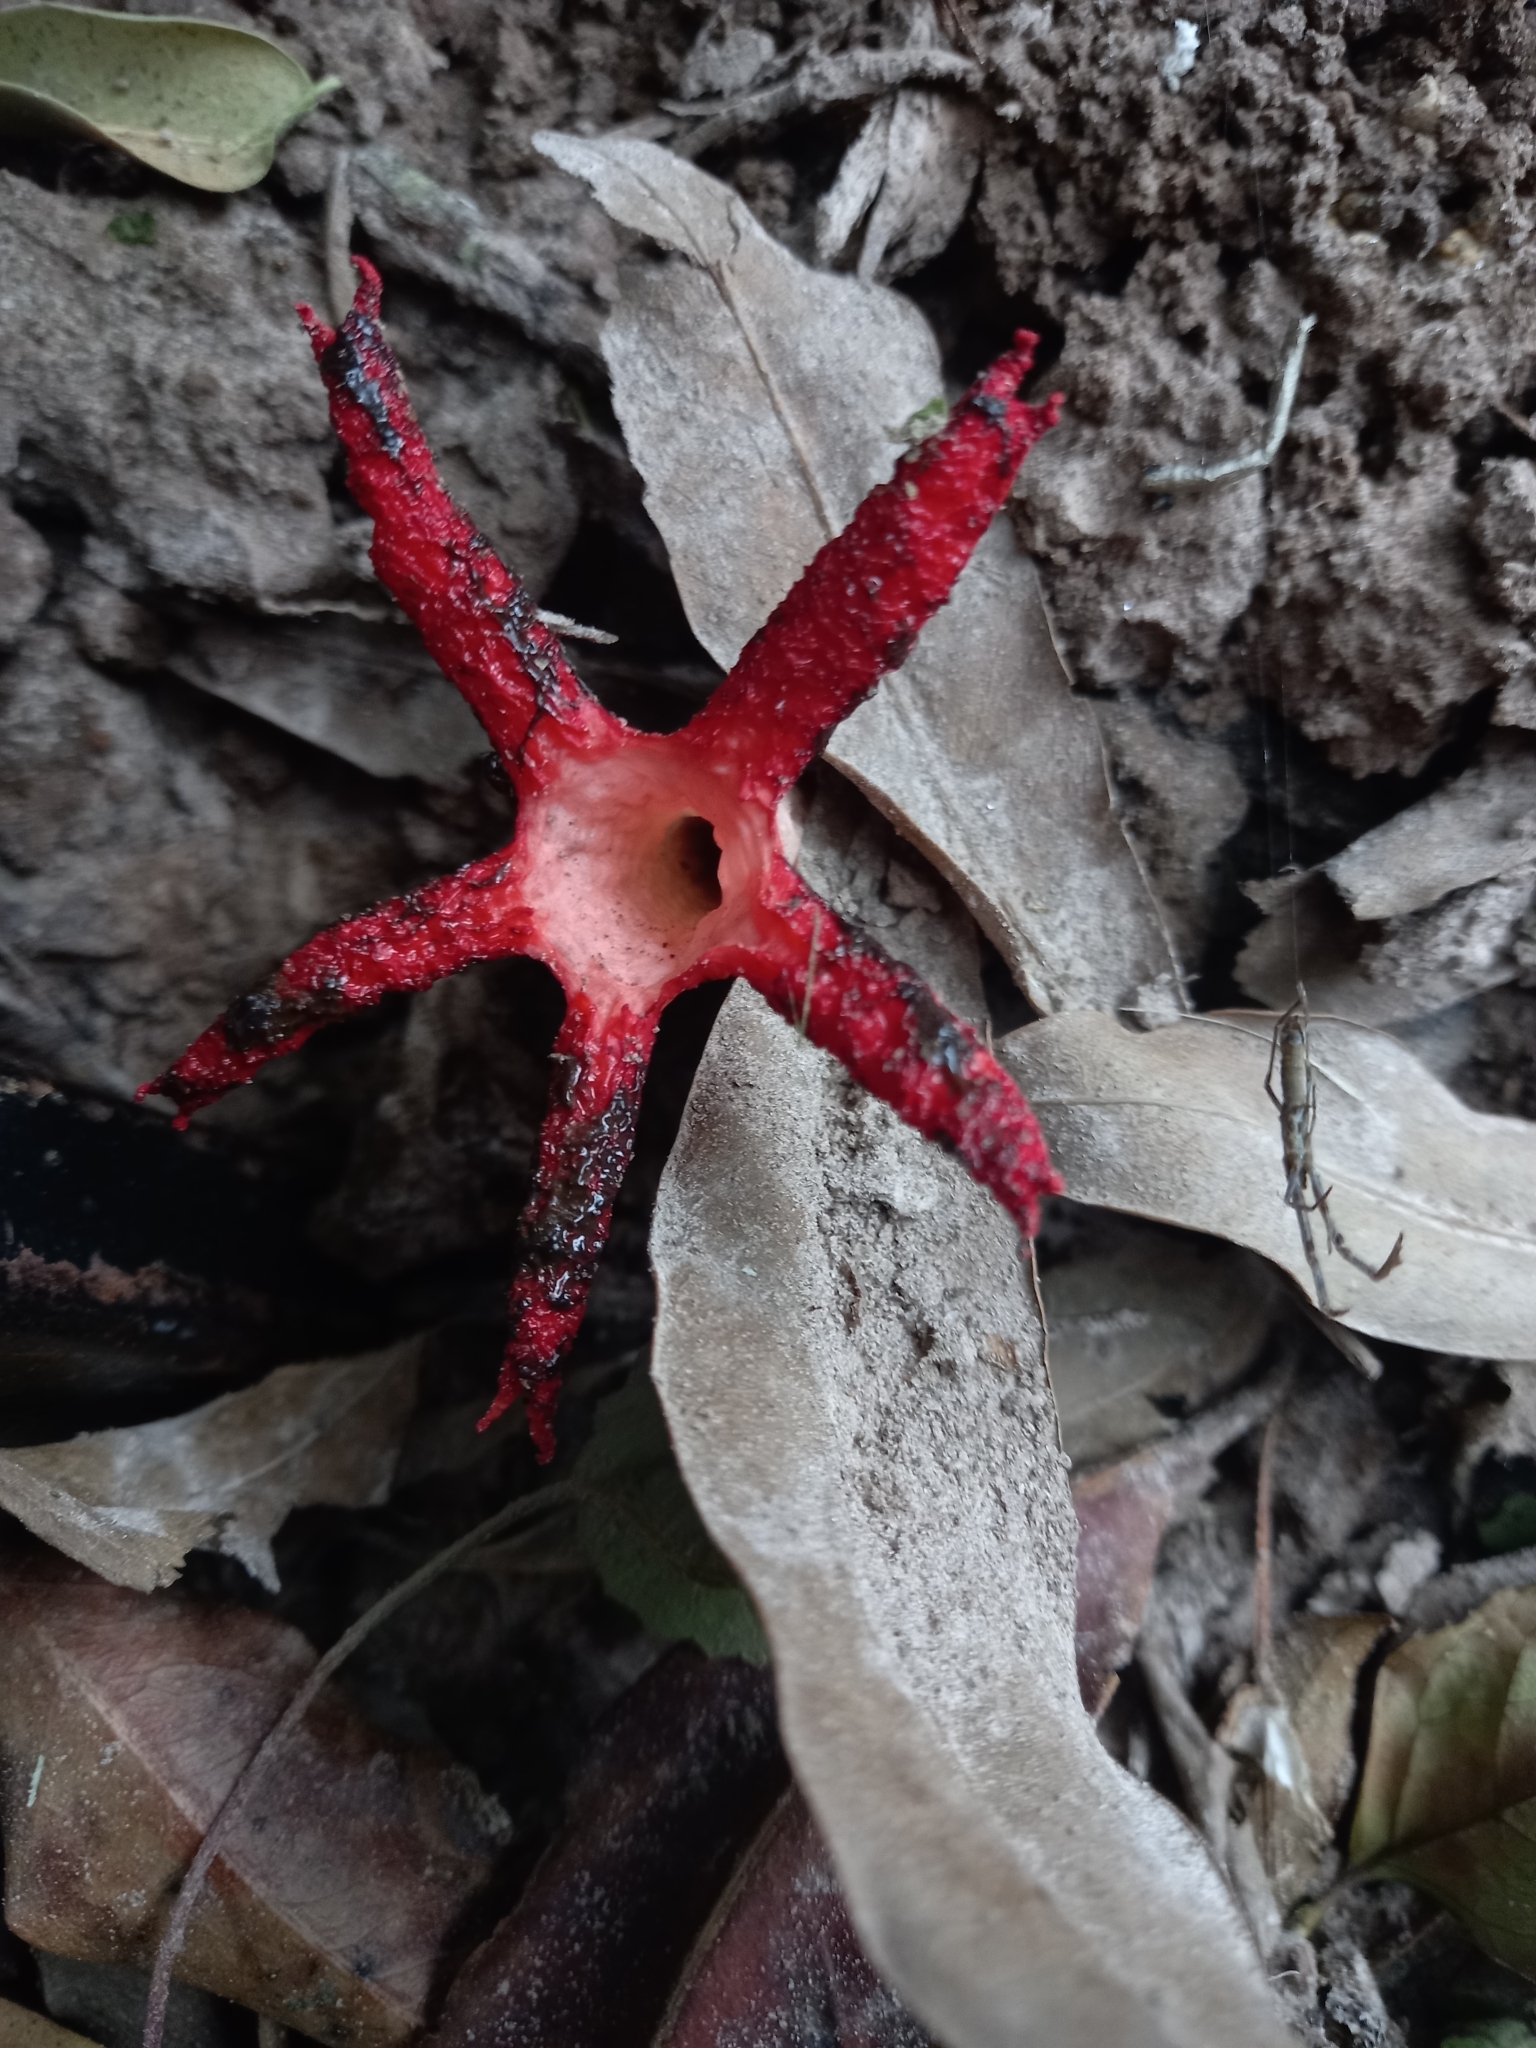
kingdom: Fungi
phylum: Basidiomycota
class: Agaricomycetes
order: Phallales
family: Phallaceae
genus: Clathrus
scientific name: Clathrus archeri
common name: Devil's fingers
